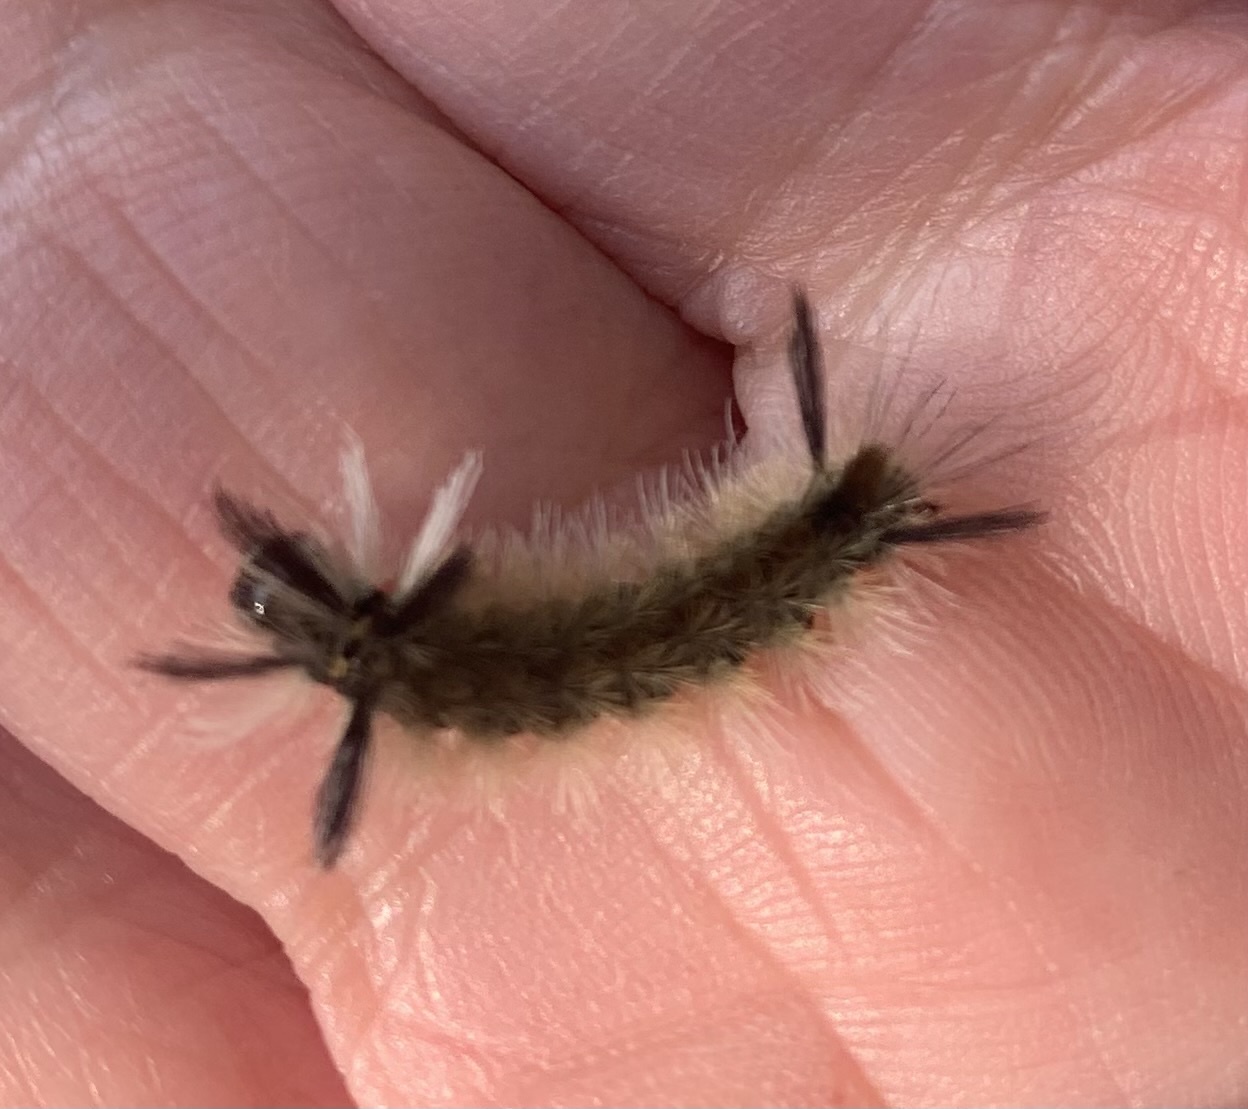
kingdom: Animalia
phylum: Arthropoda
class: Insecta
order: Lepidoptera
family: Erebidae
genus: Halysidota
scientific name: Halysidota tessellaris
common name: Banded tussock moth
